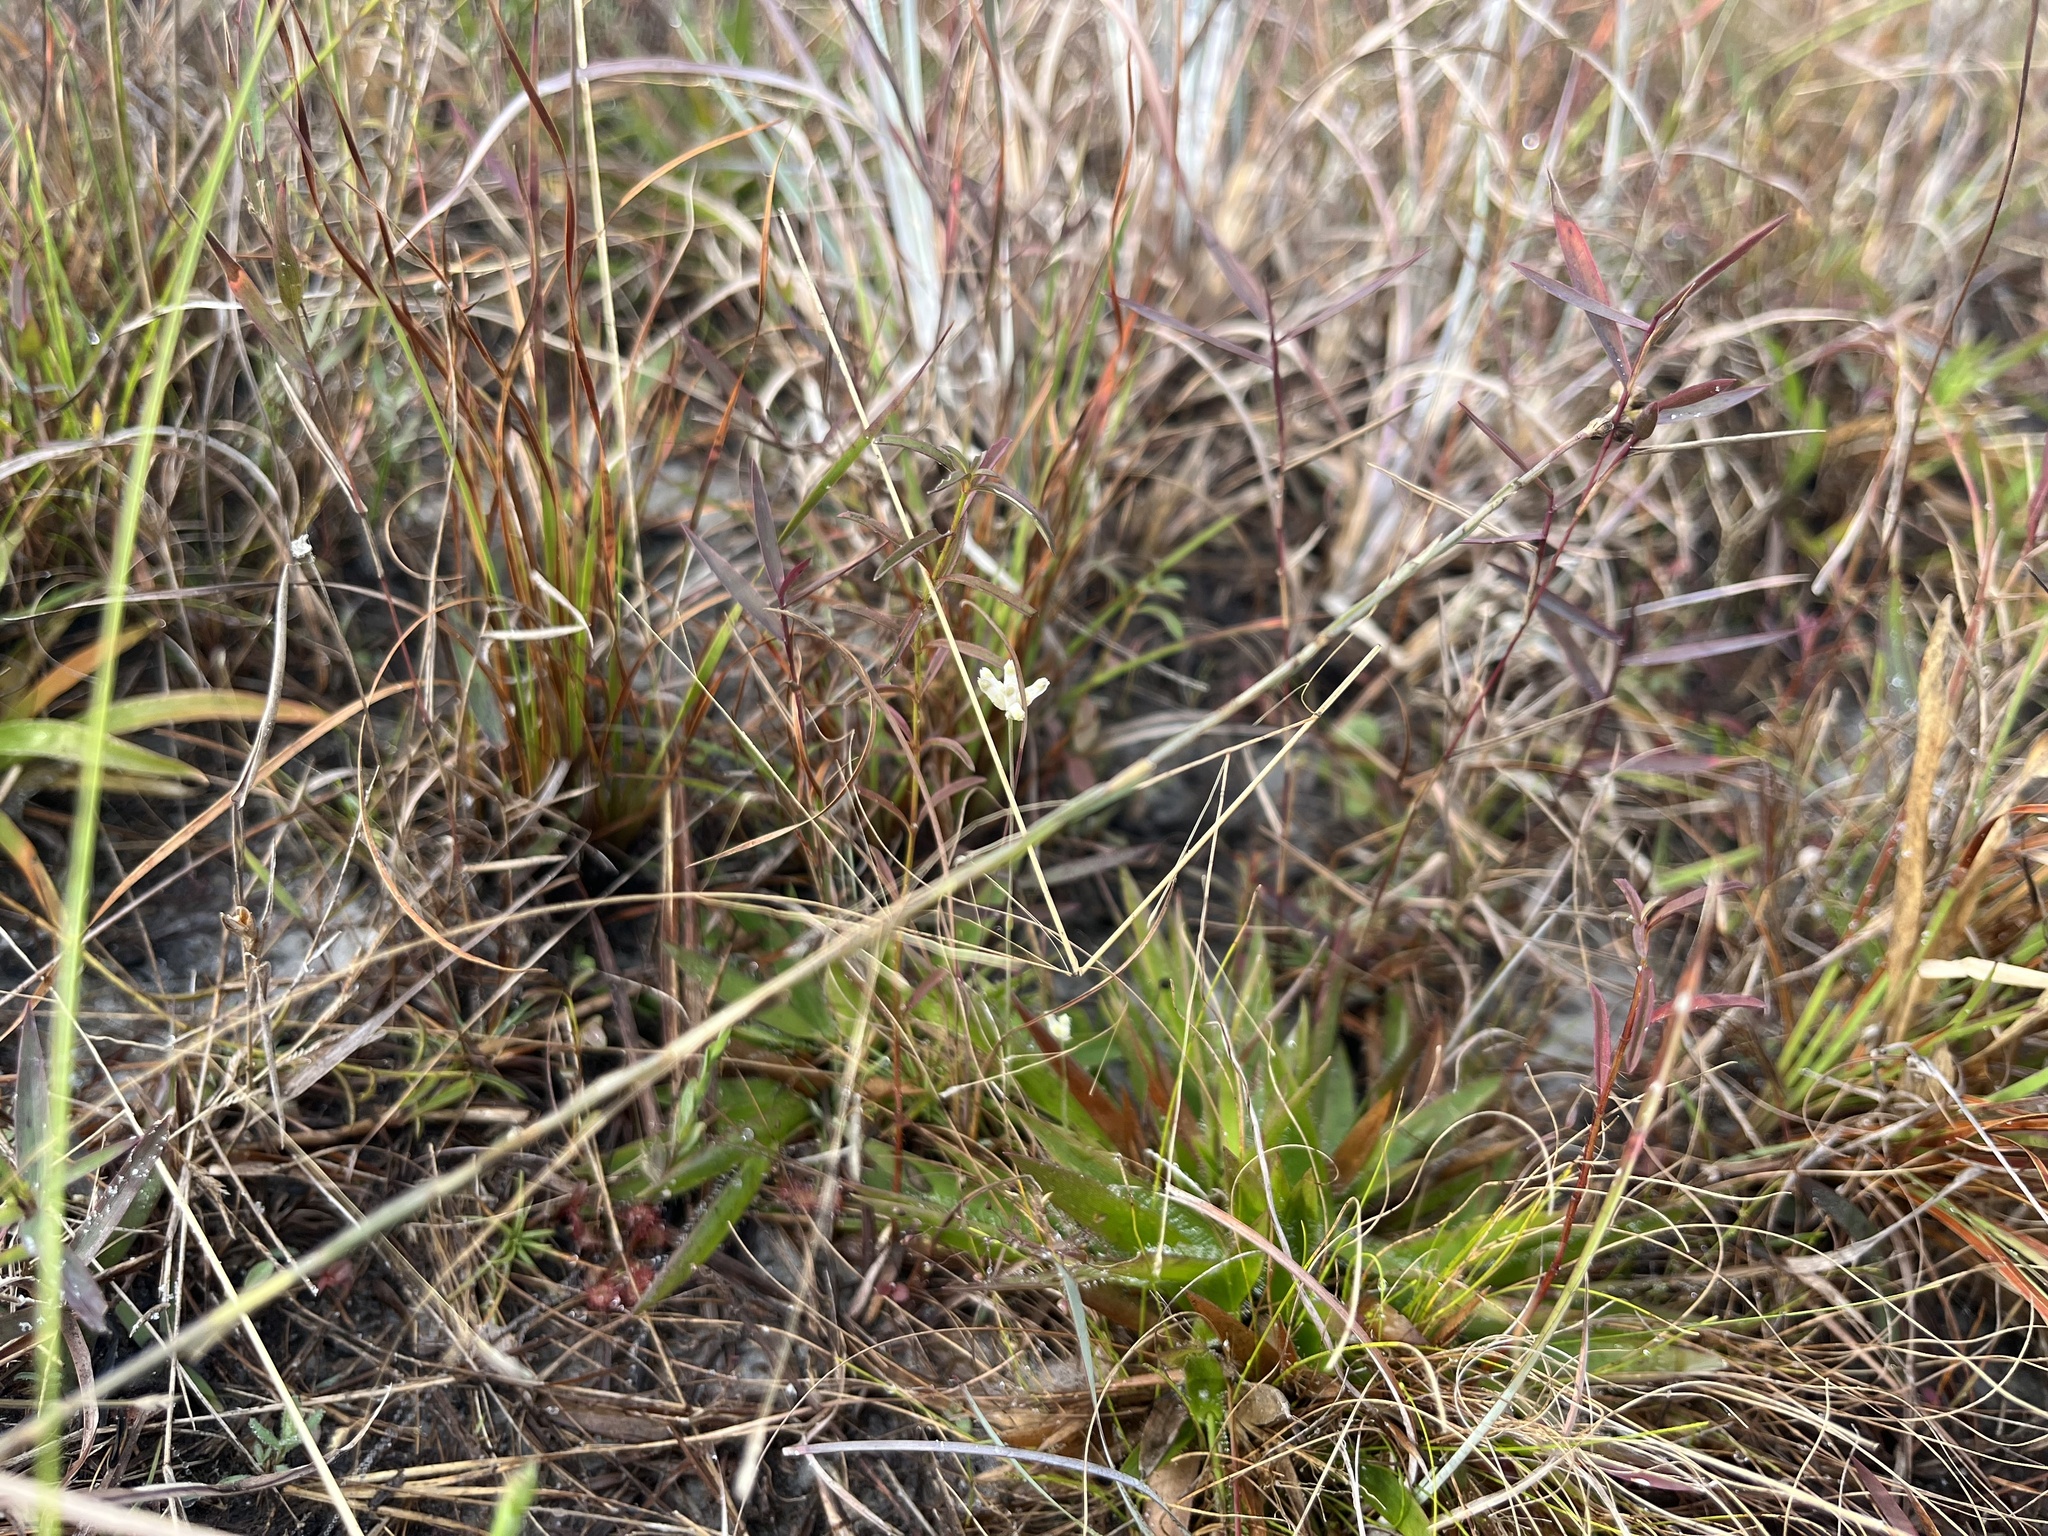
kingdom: Plantae
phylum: Tracheophyta
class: Liliopsida
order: Dioscoreales
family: Burmanniaceae
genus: Burmannia
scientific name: Burmannia capitata
